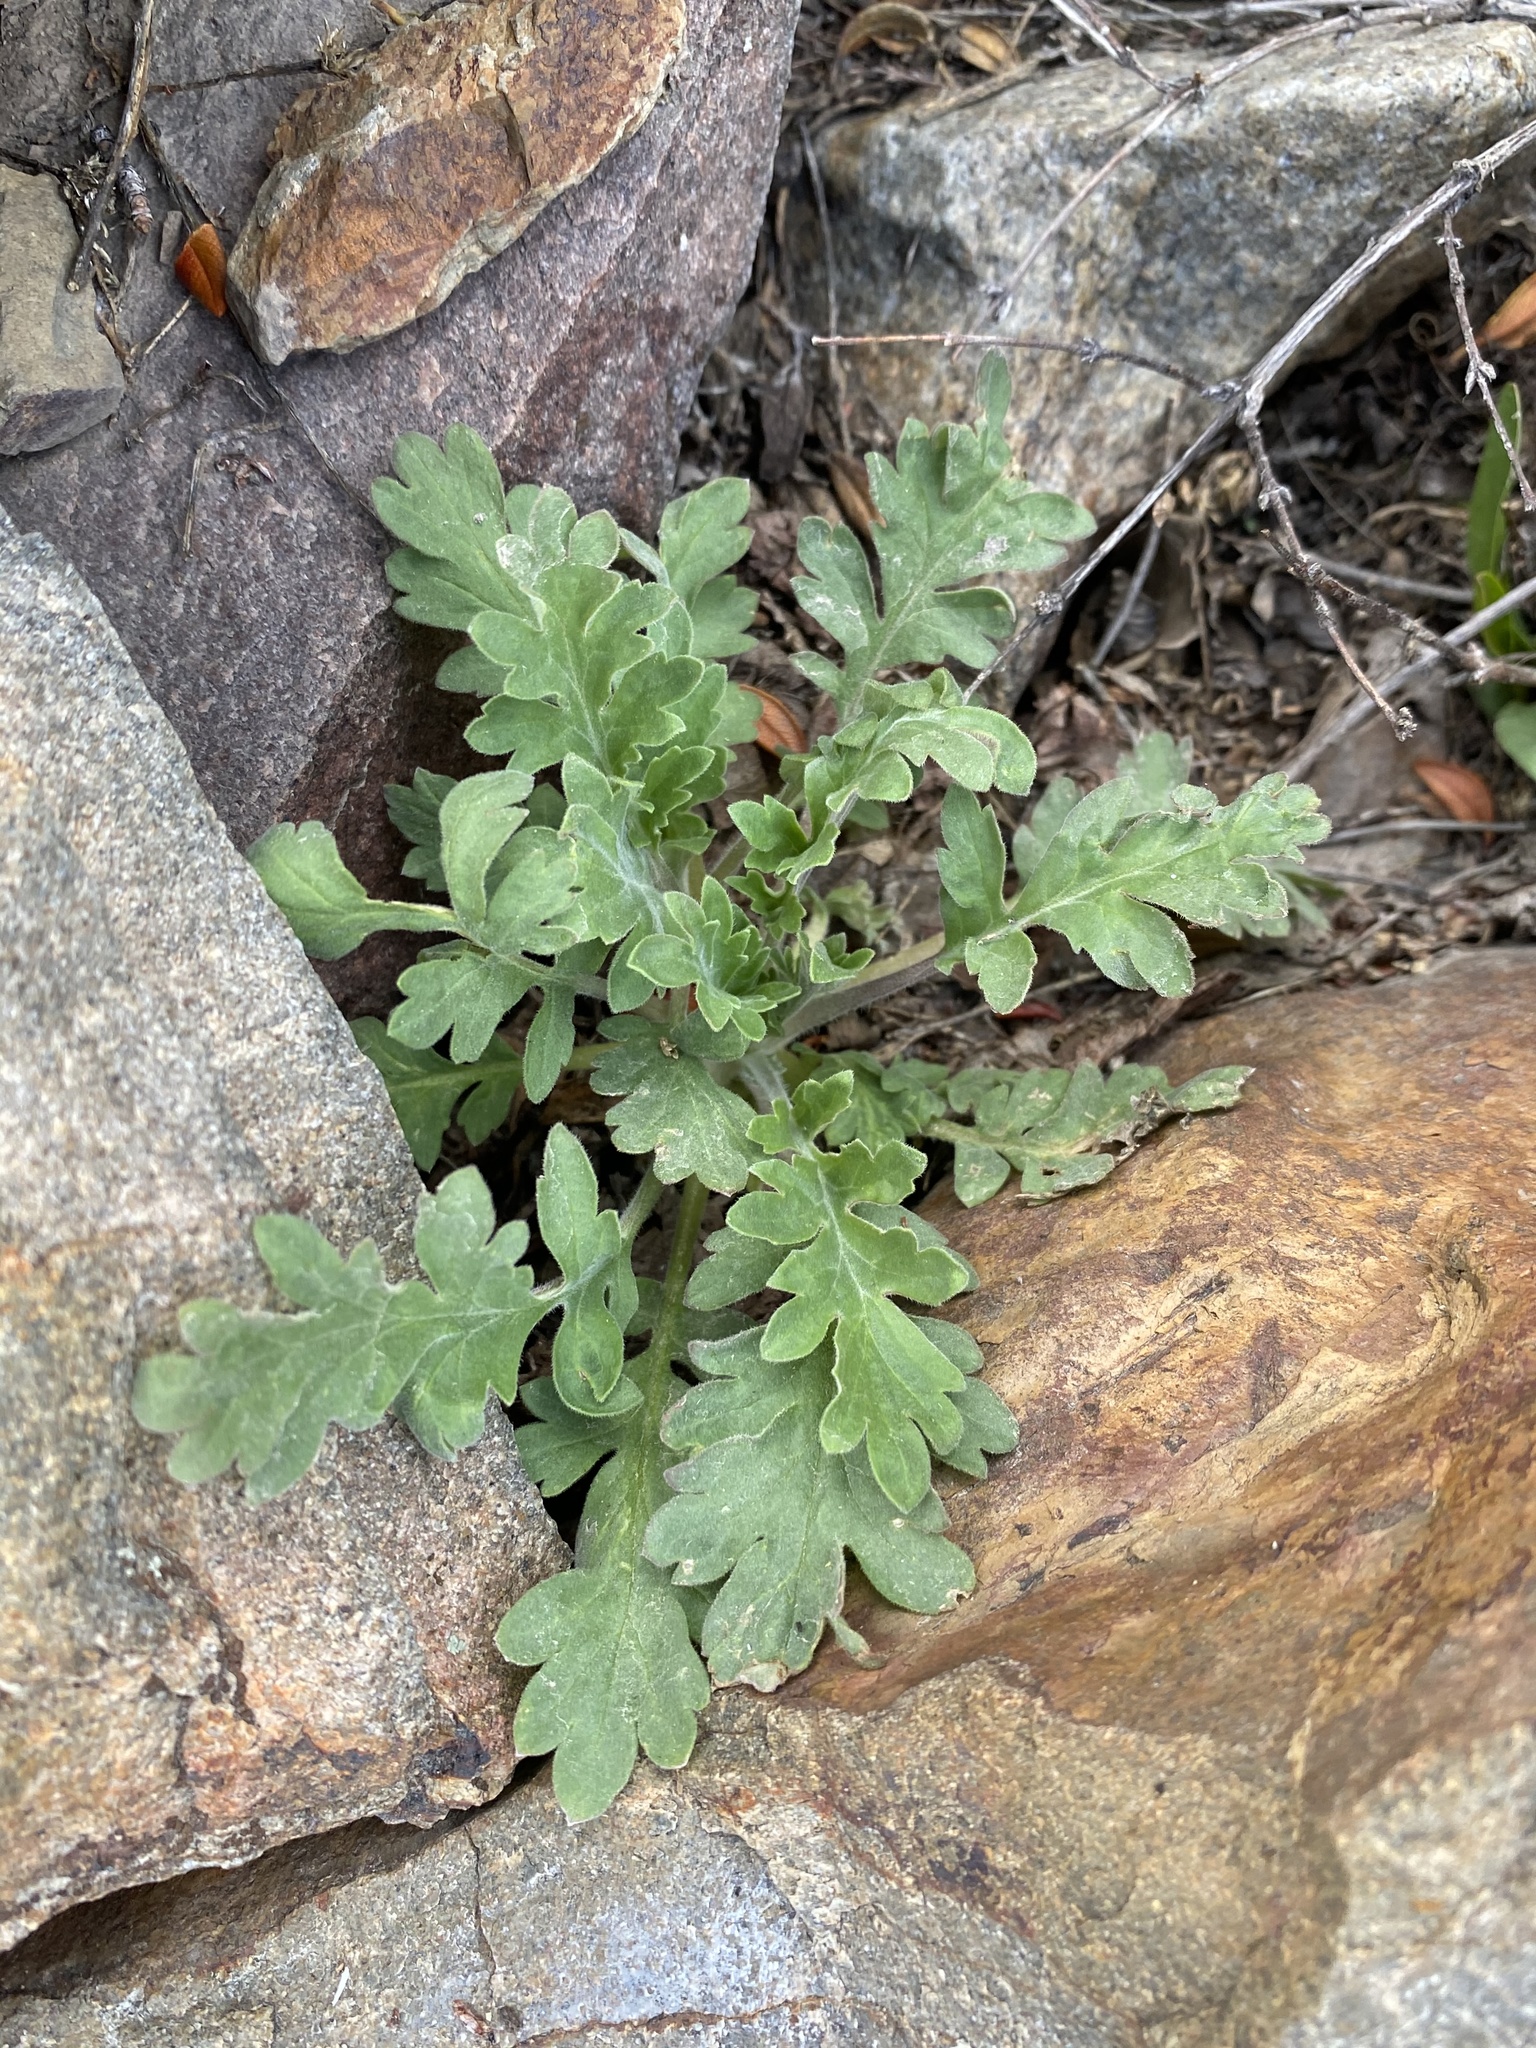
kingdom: Plantae
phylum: Tracheophyta
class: Magnoliopsida
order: Boraginales
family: Hydrophyllaceae
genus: Phacelia
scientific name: Phacelia sericea
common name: Silky phacelia
